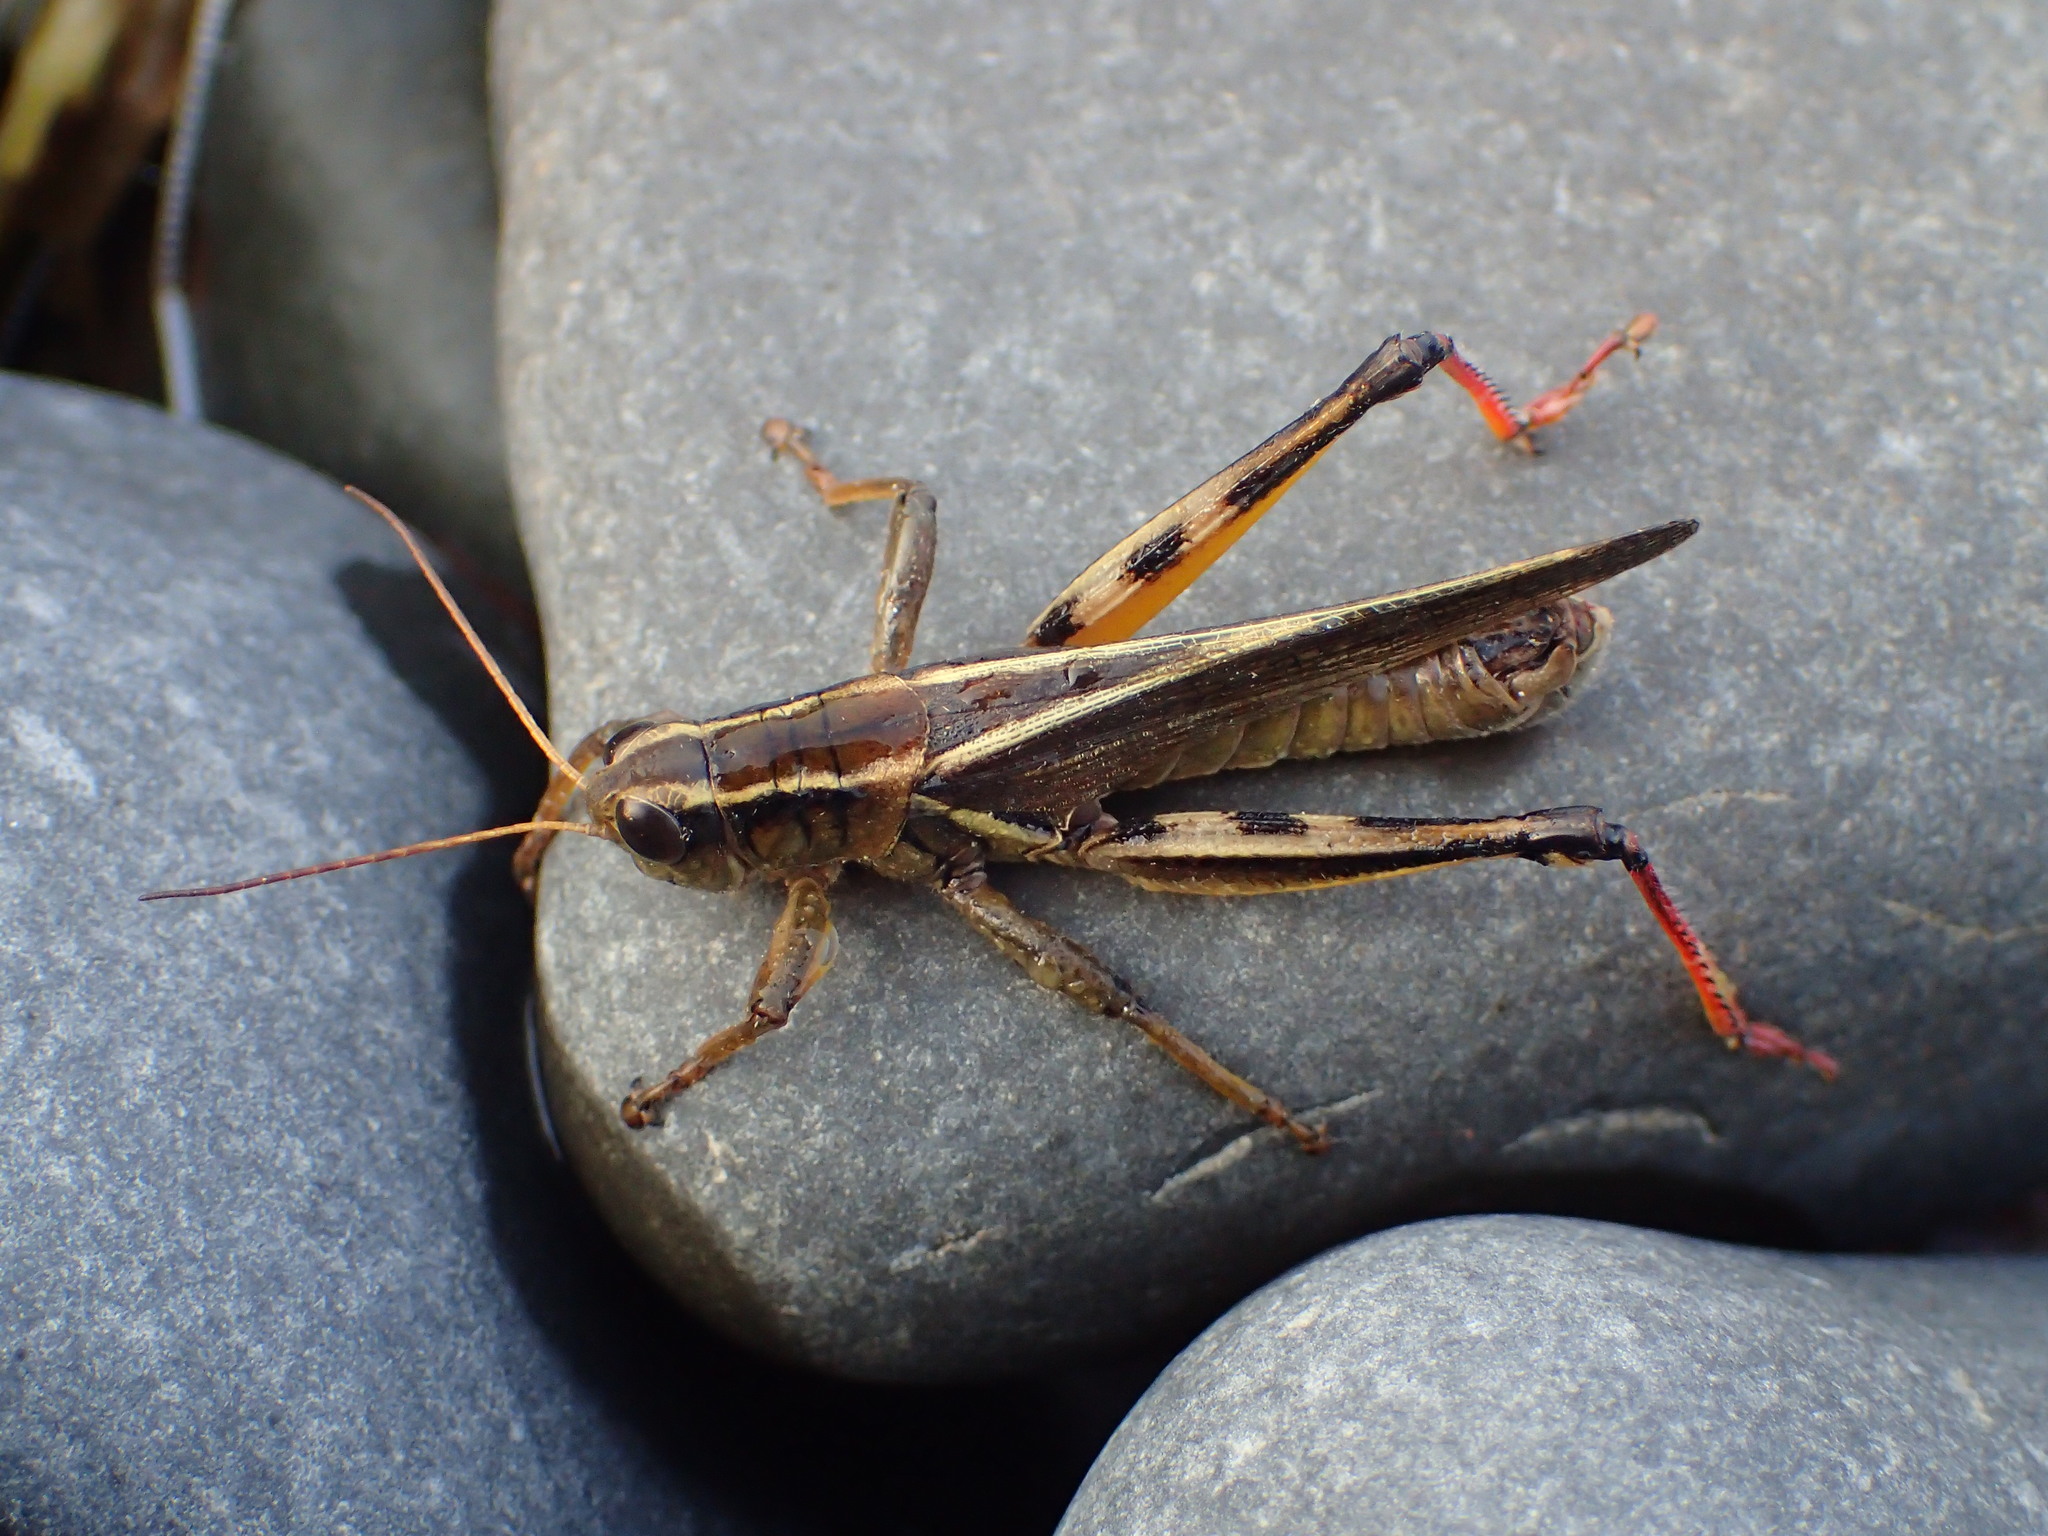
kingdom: Animalia
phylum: Arthropoda
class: Insecta
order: Orthoptera
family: Acrididae
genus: Melanoplus
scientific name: Melanoplus bivittatus
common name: Two-striped grasshopper
